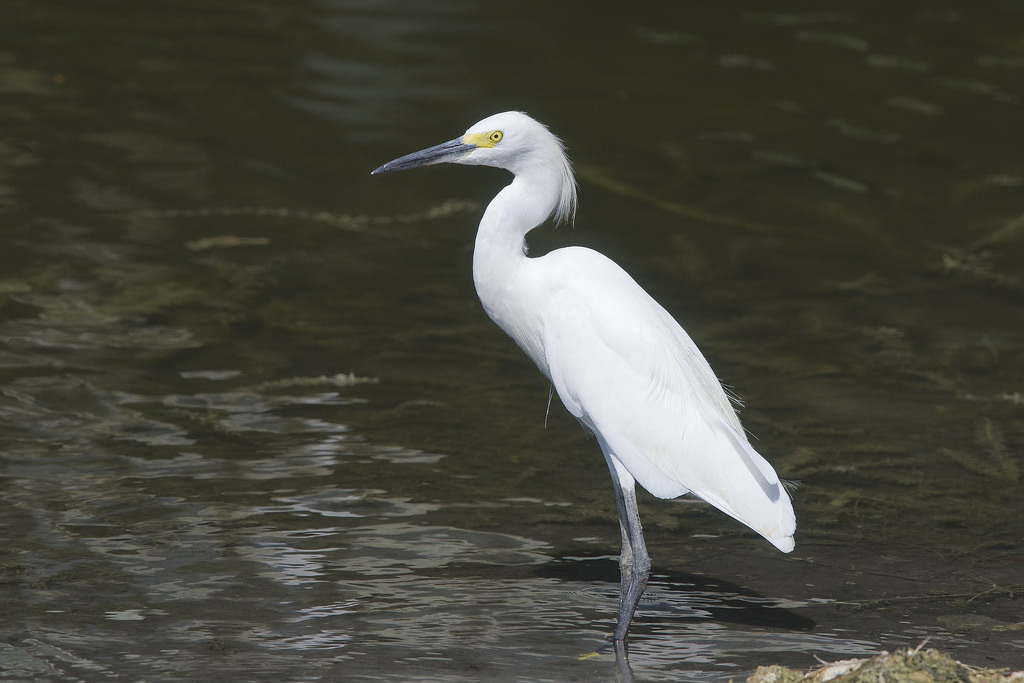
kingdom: Animalia
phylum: Chordata
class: Aves
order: Pelecaniformes
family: Ardeidae
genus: Egretta
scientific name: Egretta thula
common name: Snowy egret
